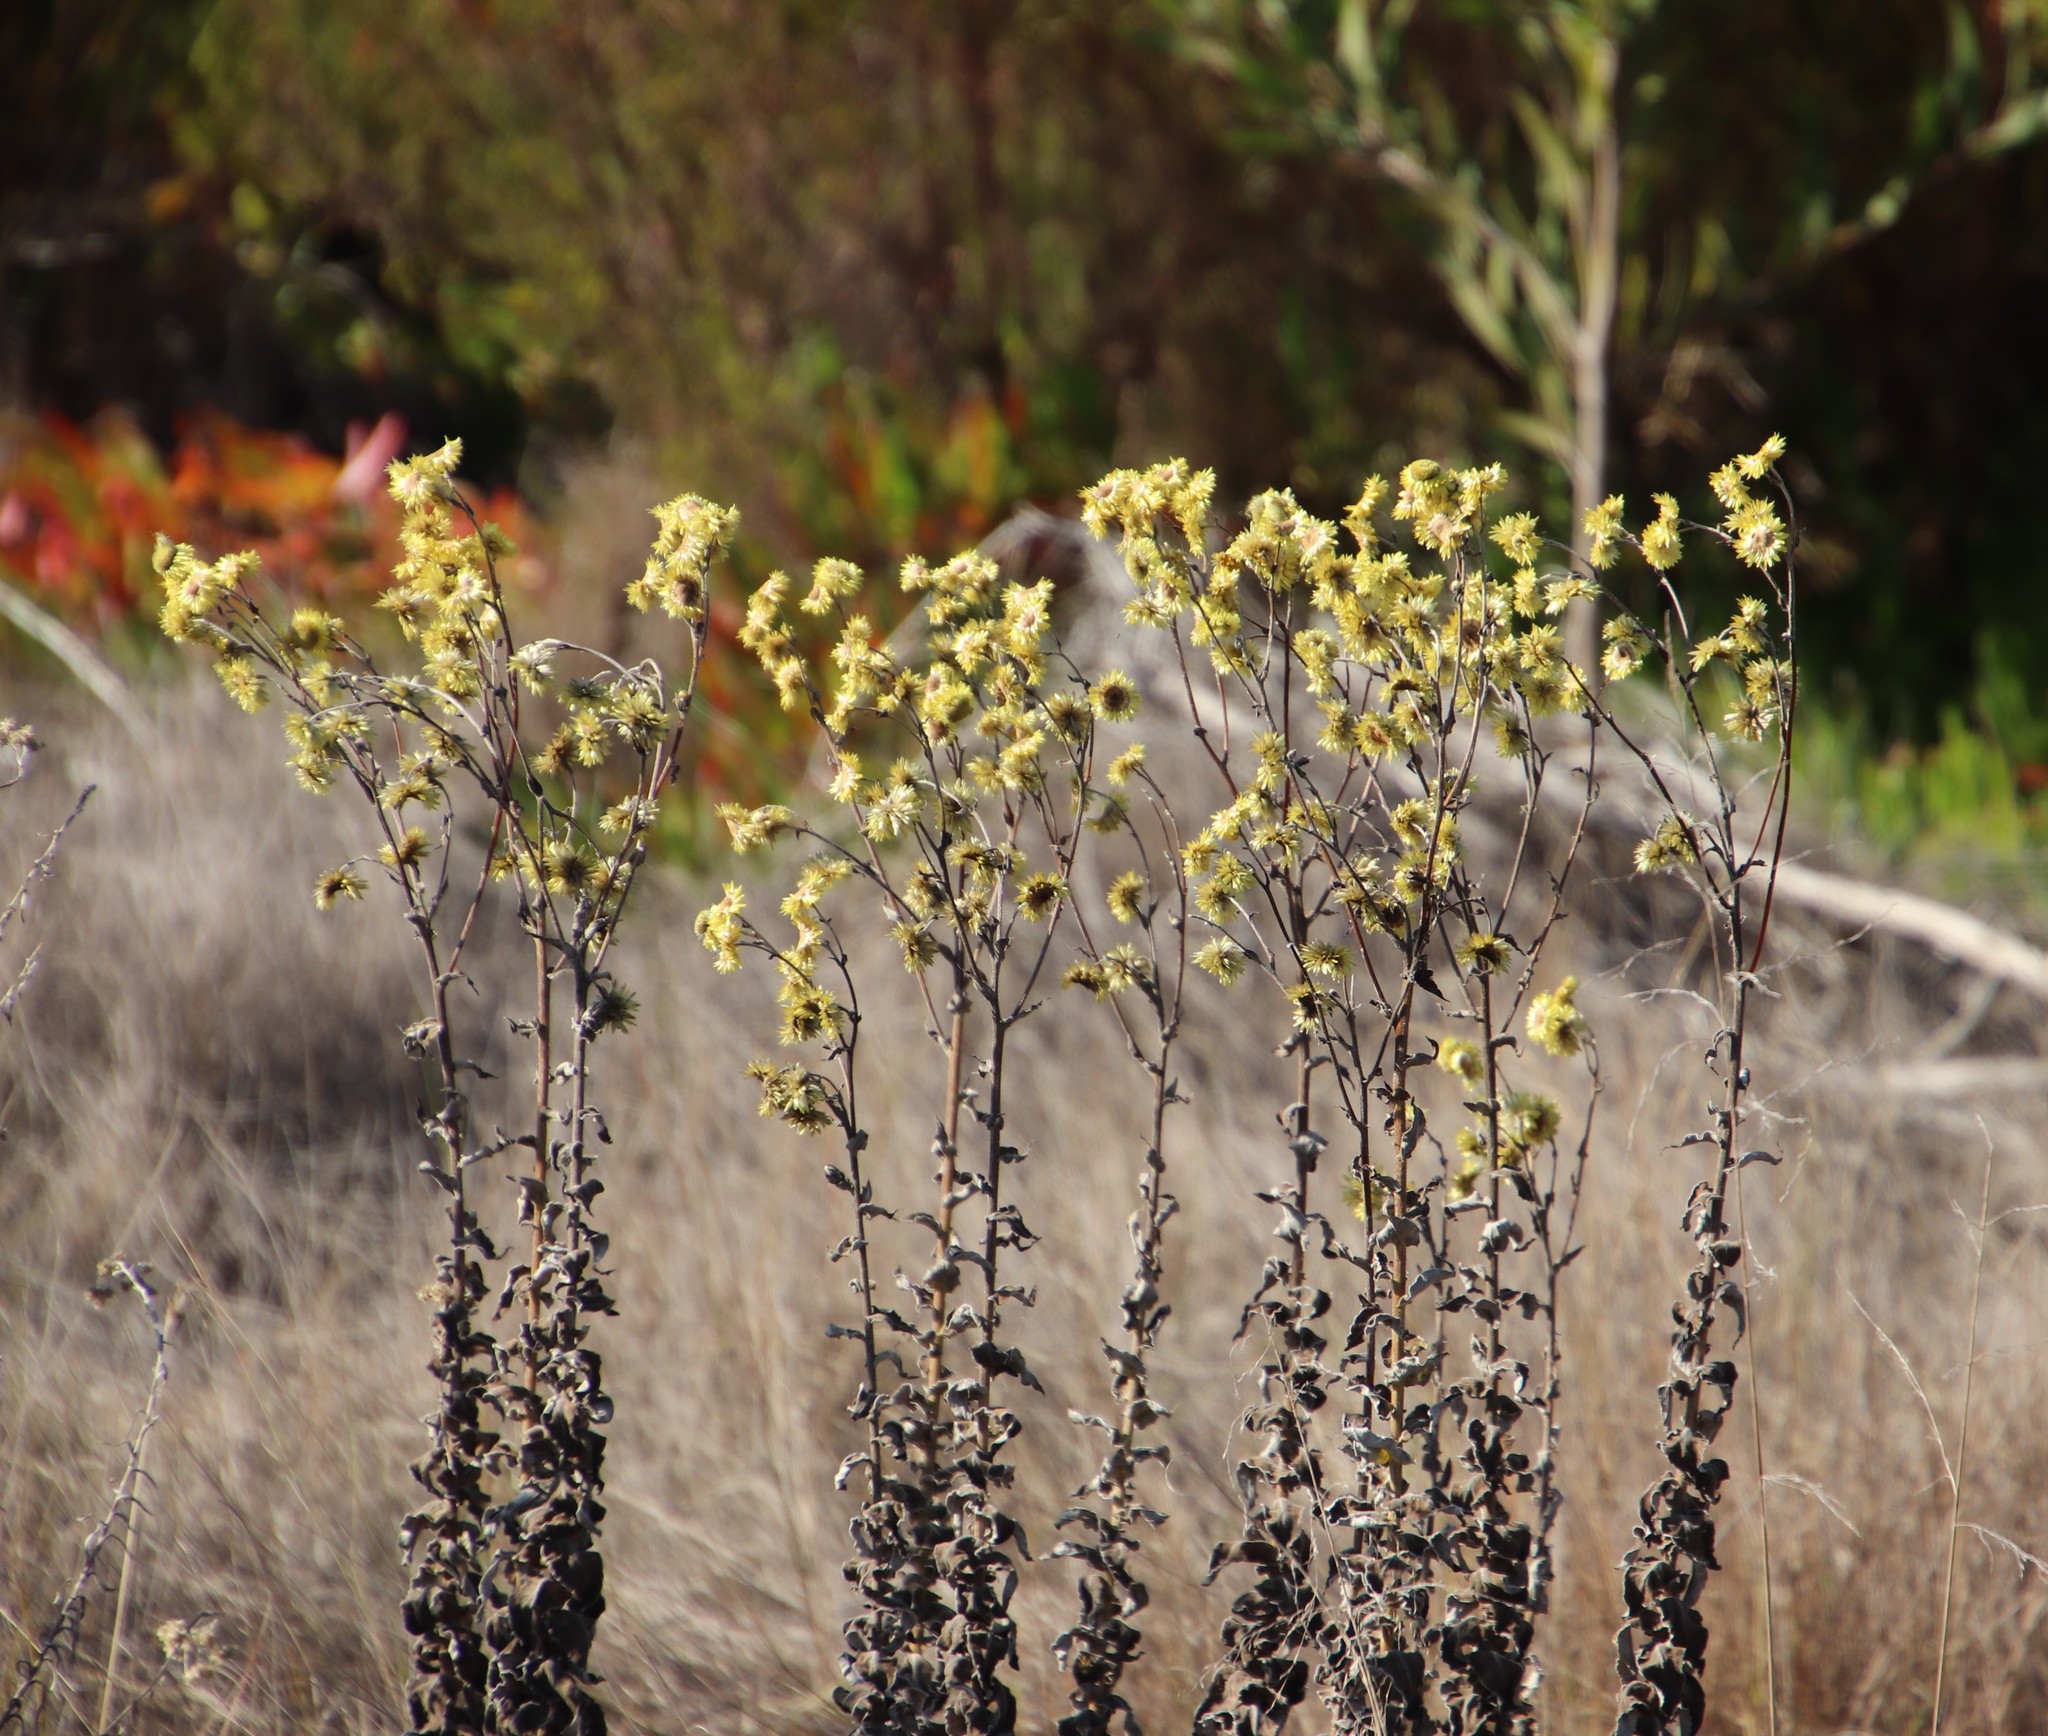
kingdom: Plantae
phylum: Tracheophyta
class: Magnoliopsida
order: Asterales
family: Asteraceae
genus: Helichrysum
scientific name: Helichrysum foetidum
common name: Stinking everlasting
